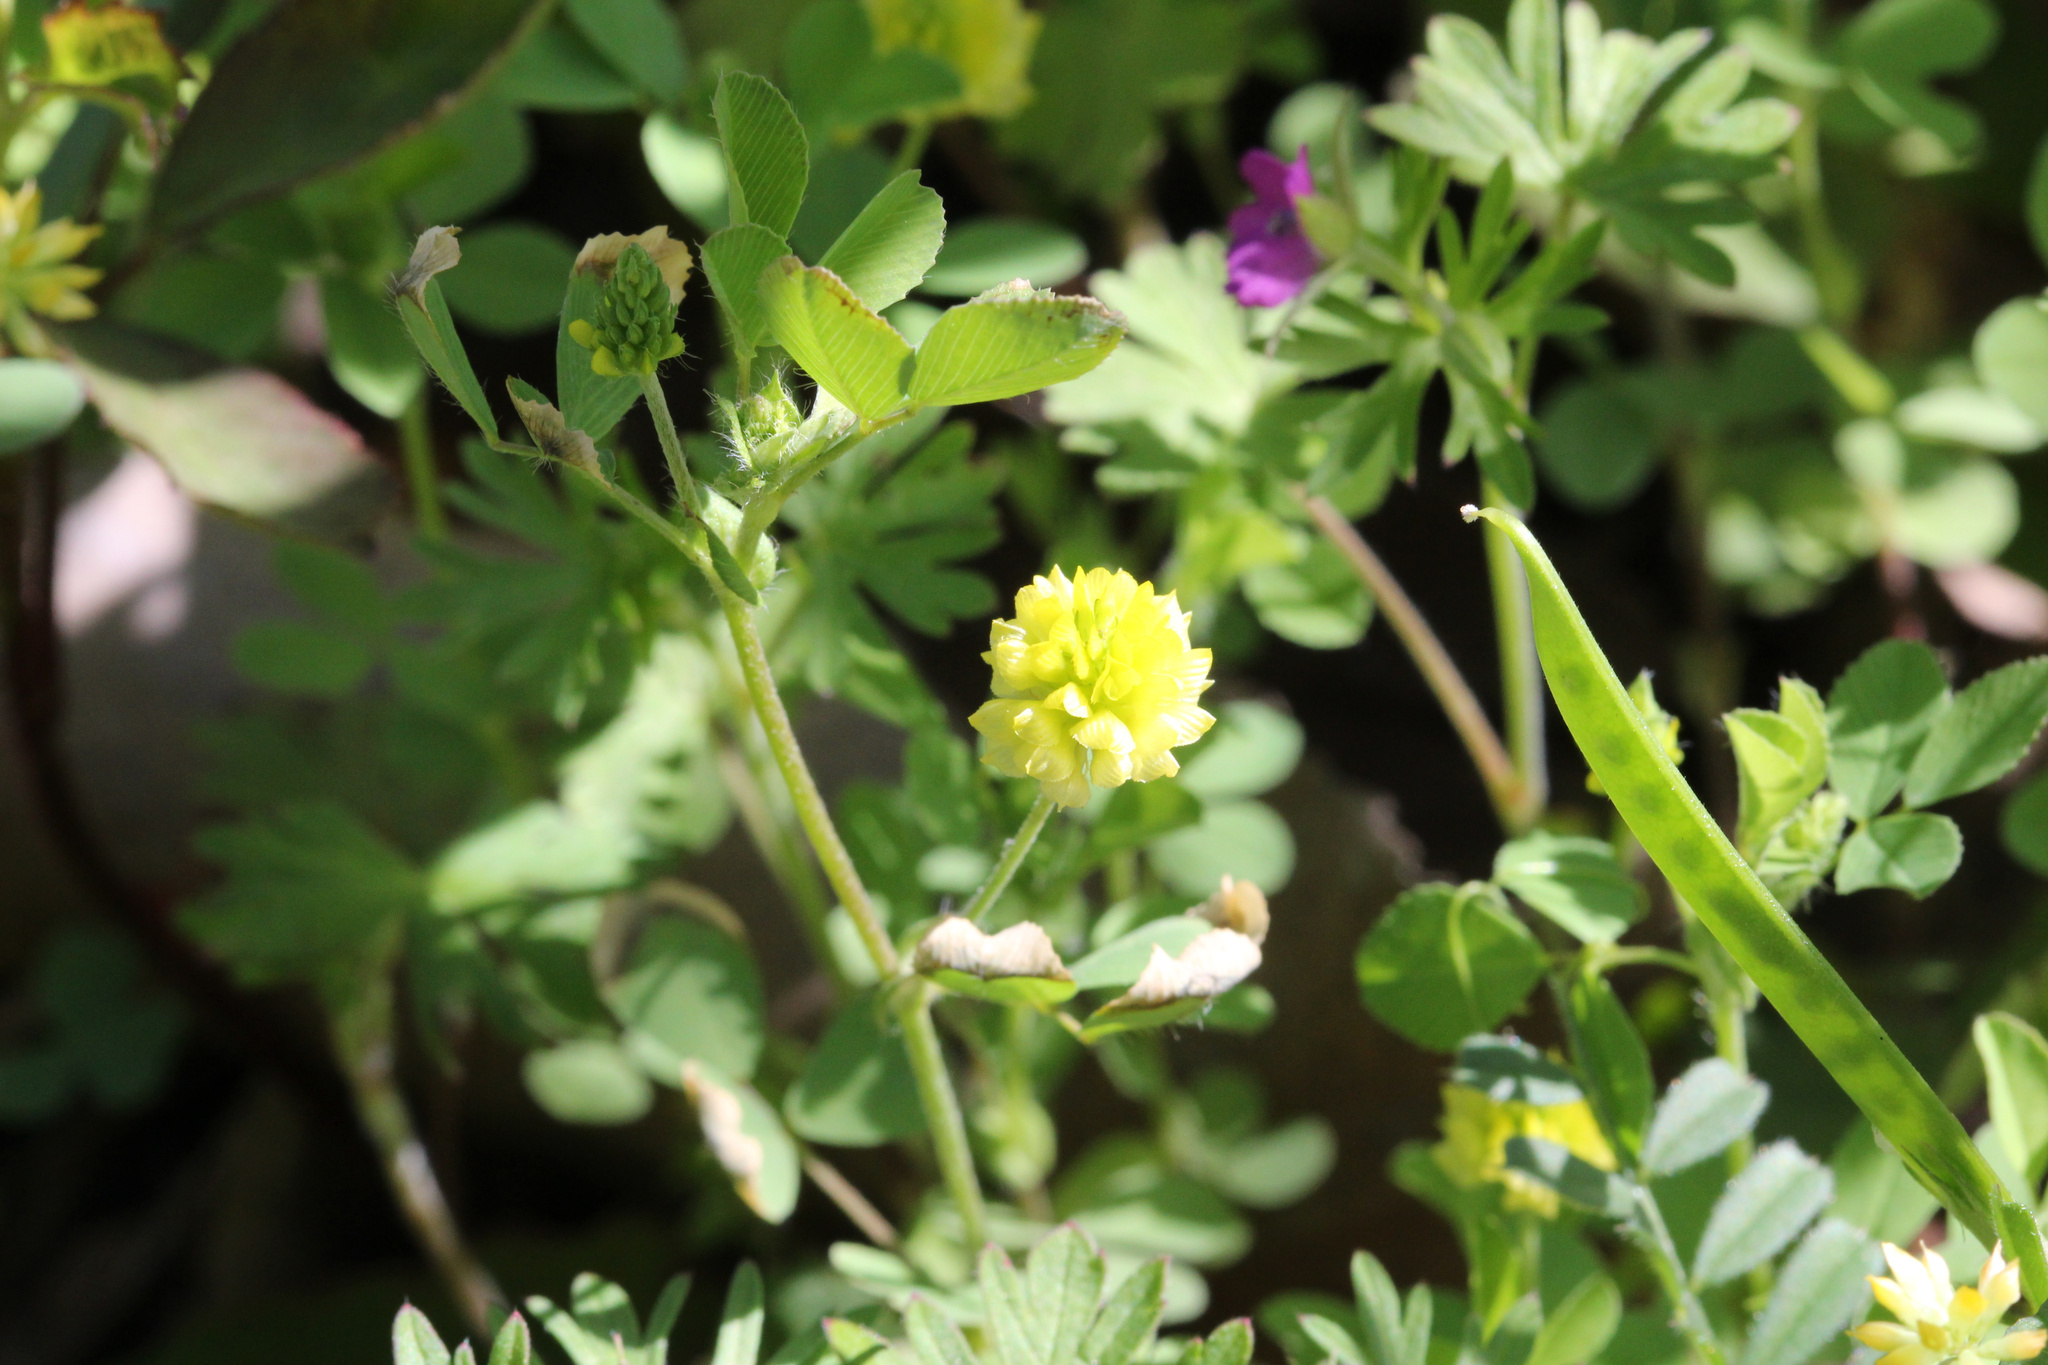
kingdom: Plantae
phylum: Tracheophyta
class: Magnoliopsida
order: Fabales
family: Fabaceae
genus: Trifolium
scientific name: Trifolium campestre
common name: Field clover
